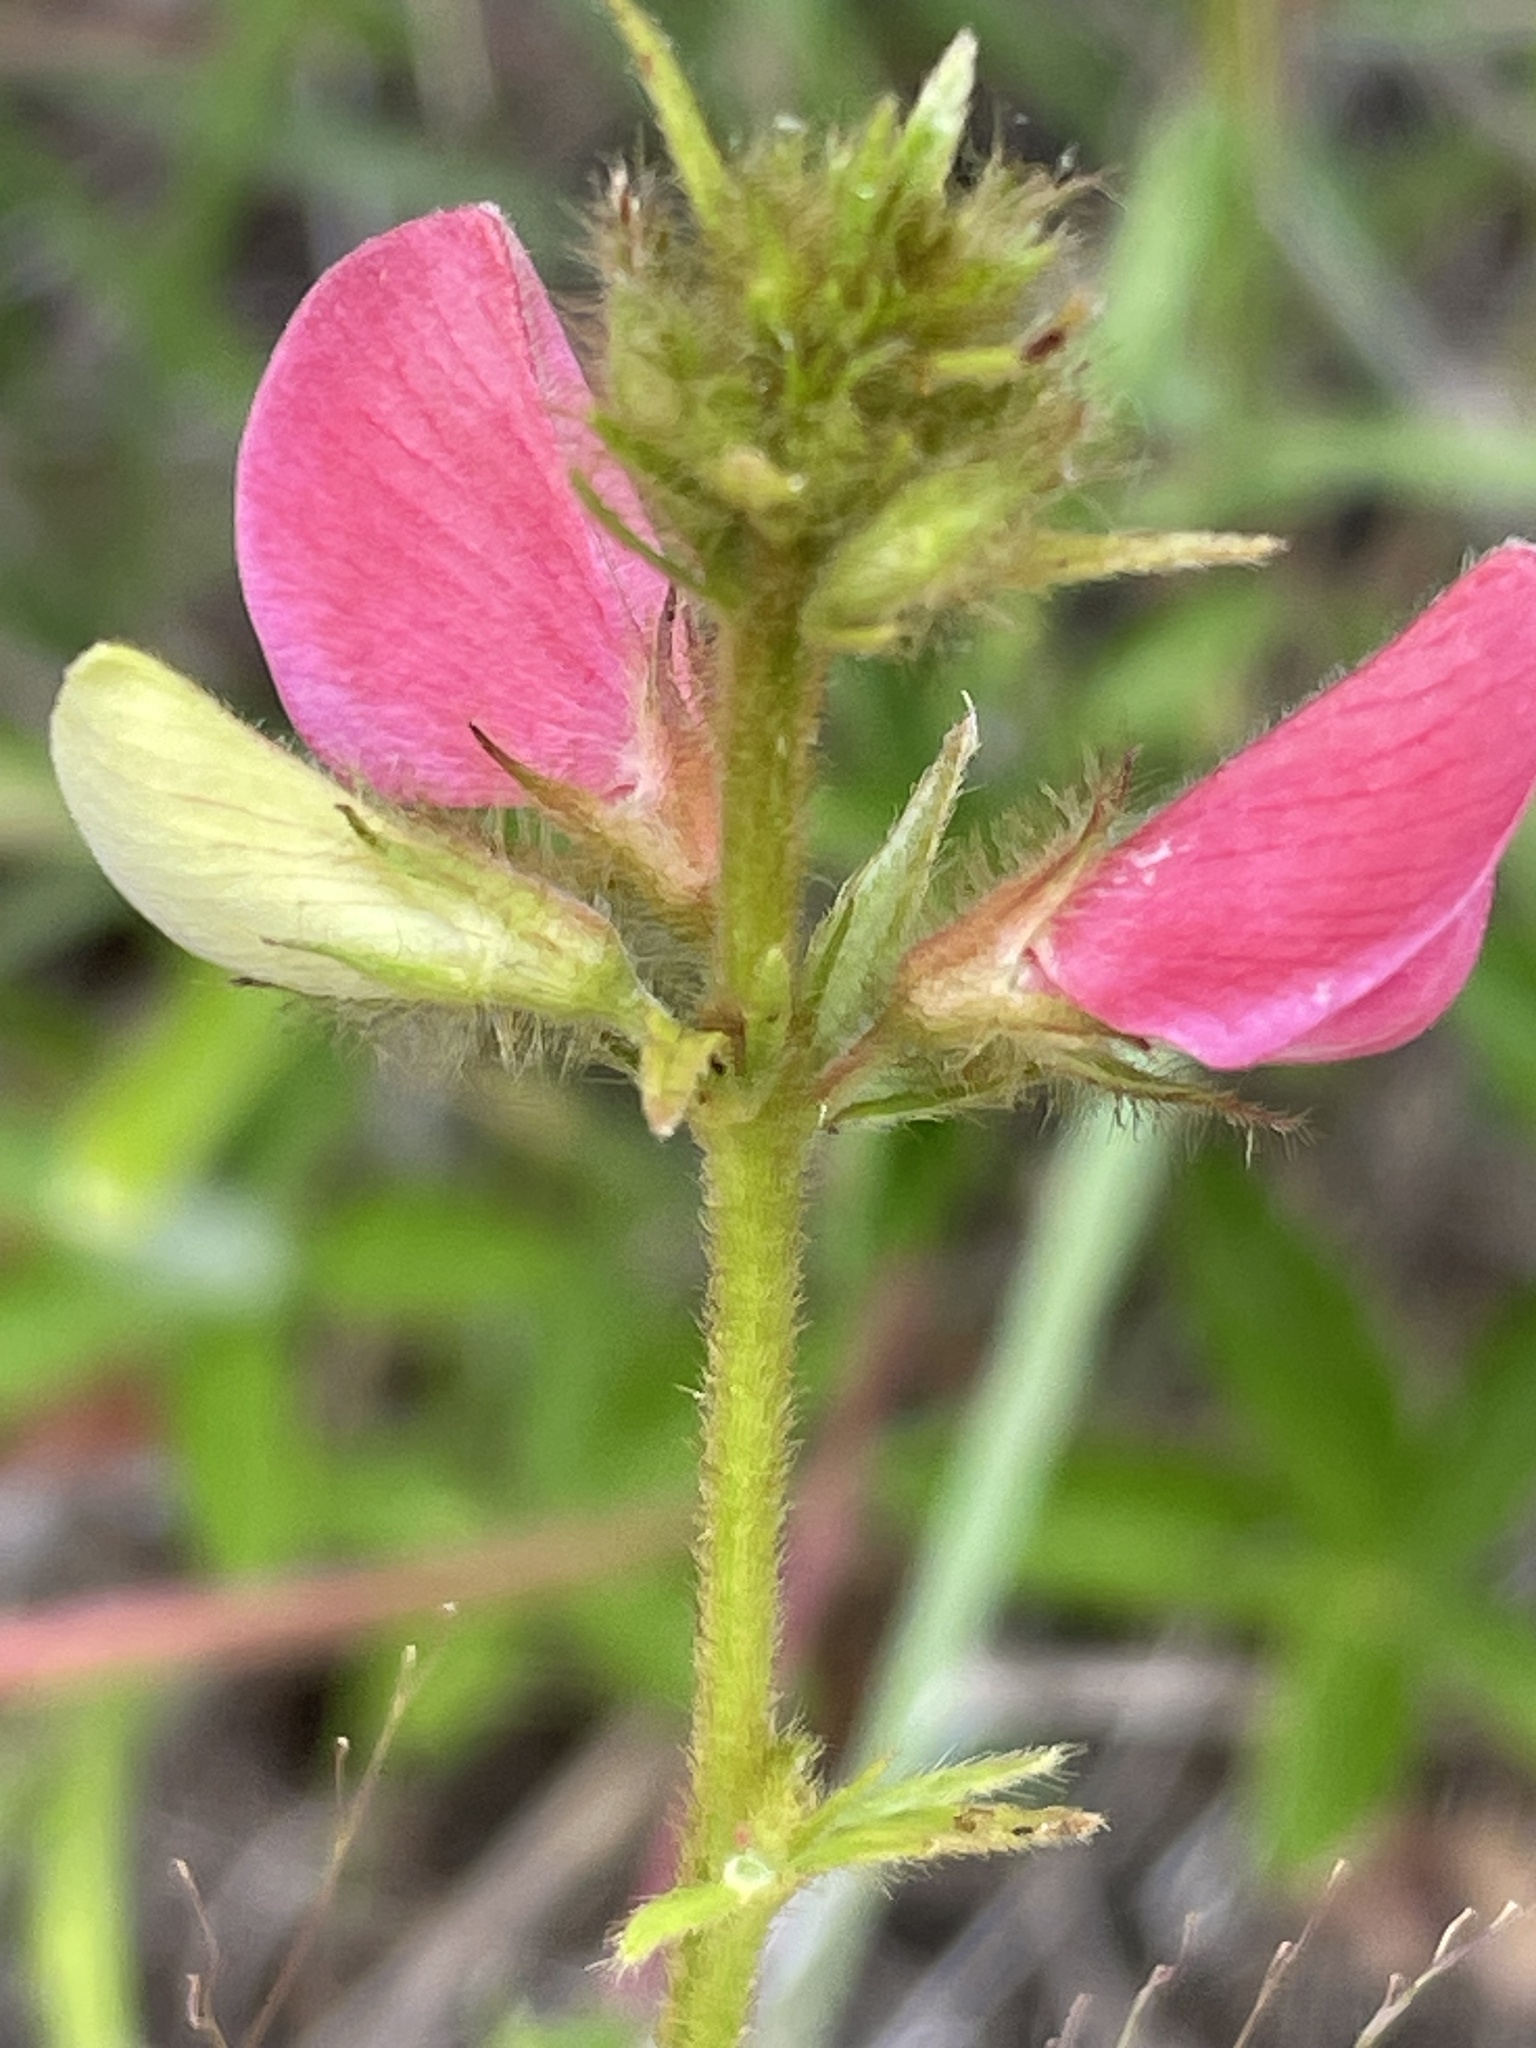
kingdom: Plantae
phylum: Tracheophyta
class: Magnoliopsida
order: Fabales
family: Fabaceae
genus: Tephrosia
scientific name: Tephrosia spicata
